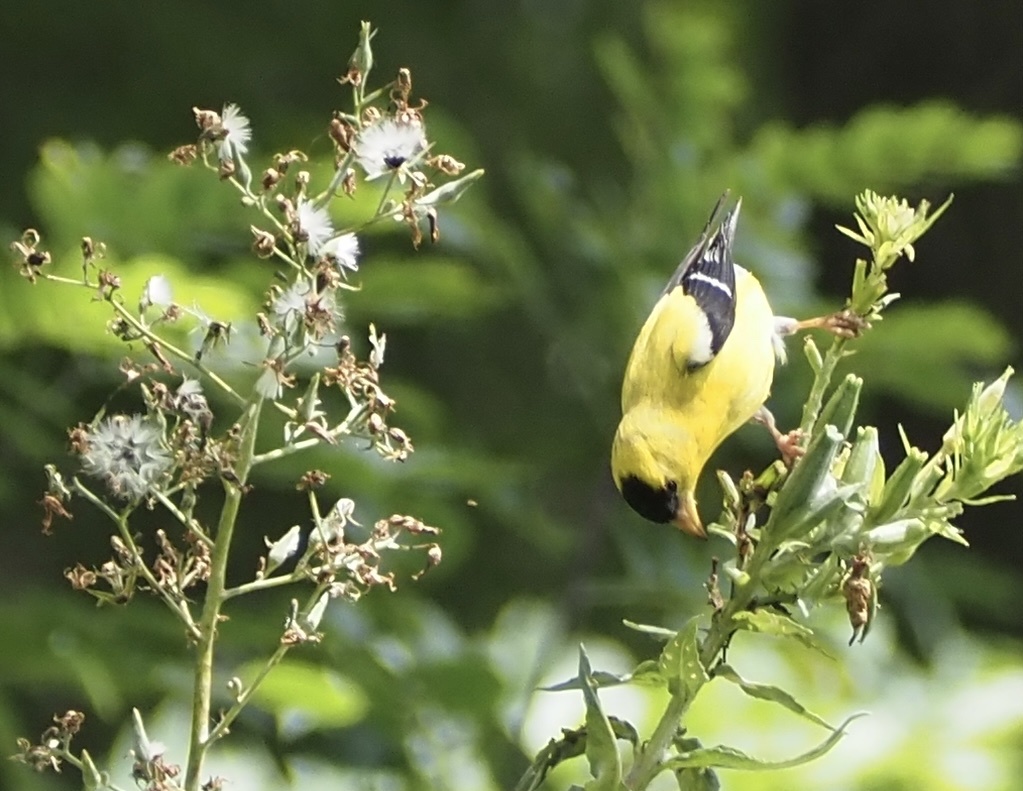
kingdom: Animalia
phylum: Chordata
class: Aves
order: Passeriformes
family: Fringillidae
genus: Spinus
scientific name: Spinus tristis
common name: American goldfinch
